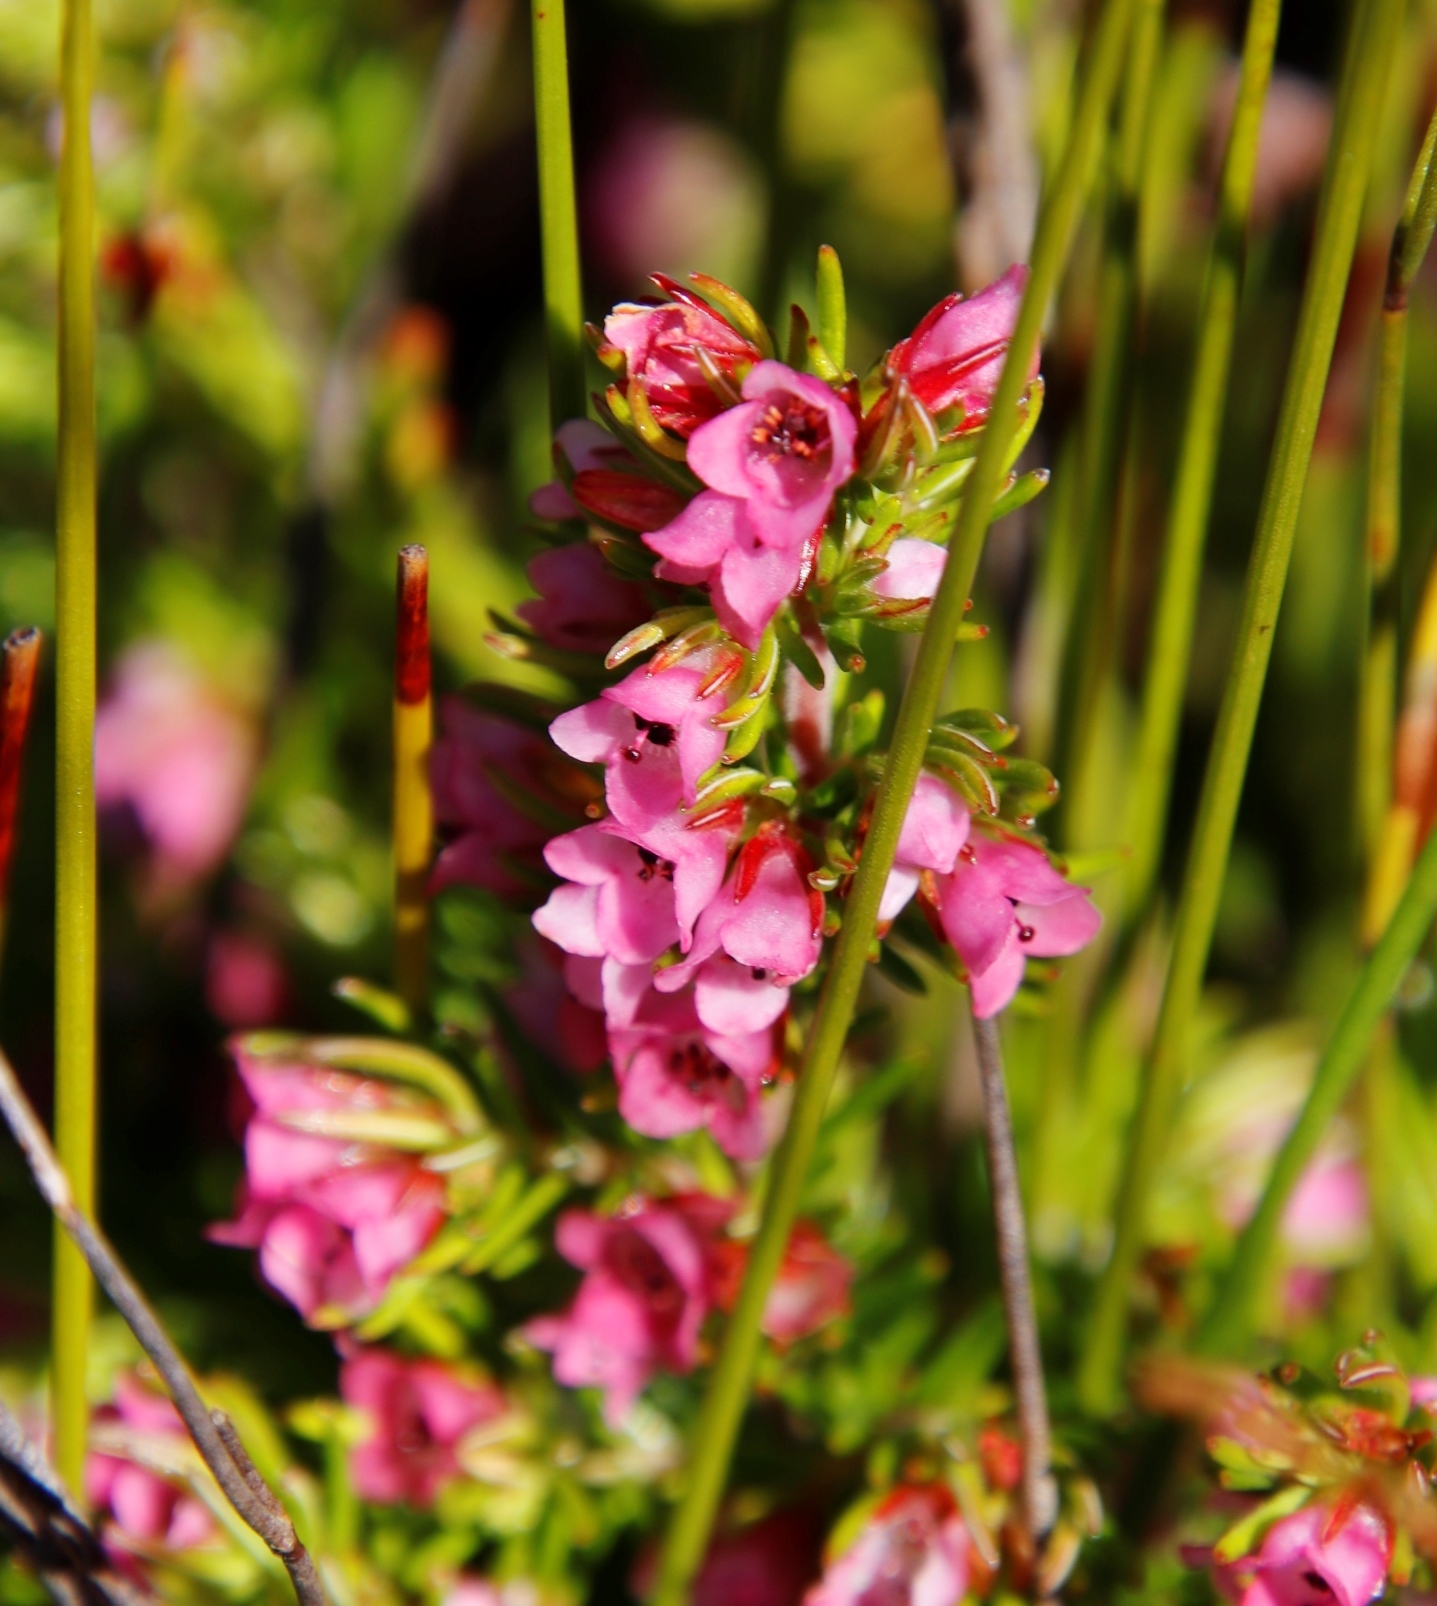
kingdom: Plantae
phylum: Tracheophyta
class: Magnoliopsida
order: Ericales
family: Ericaceae
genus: Erica
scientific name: Erica autumnalis
